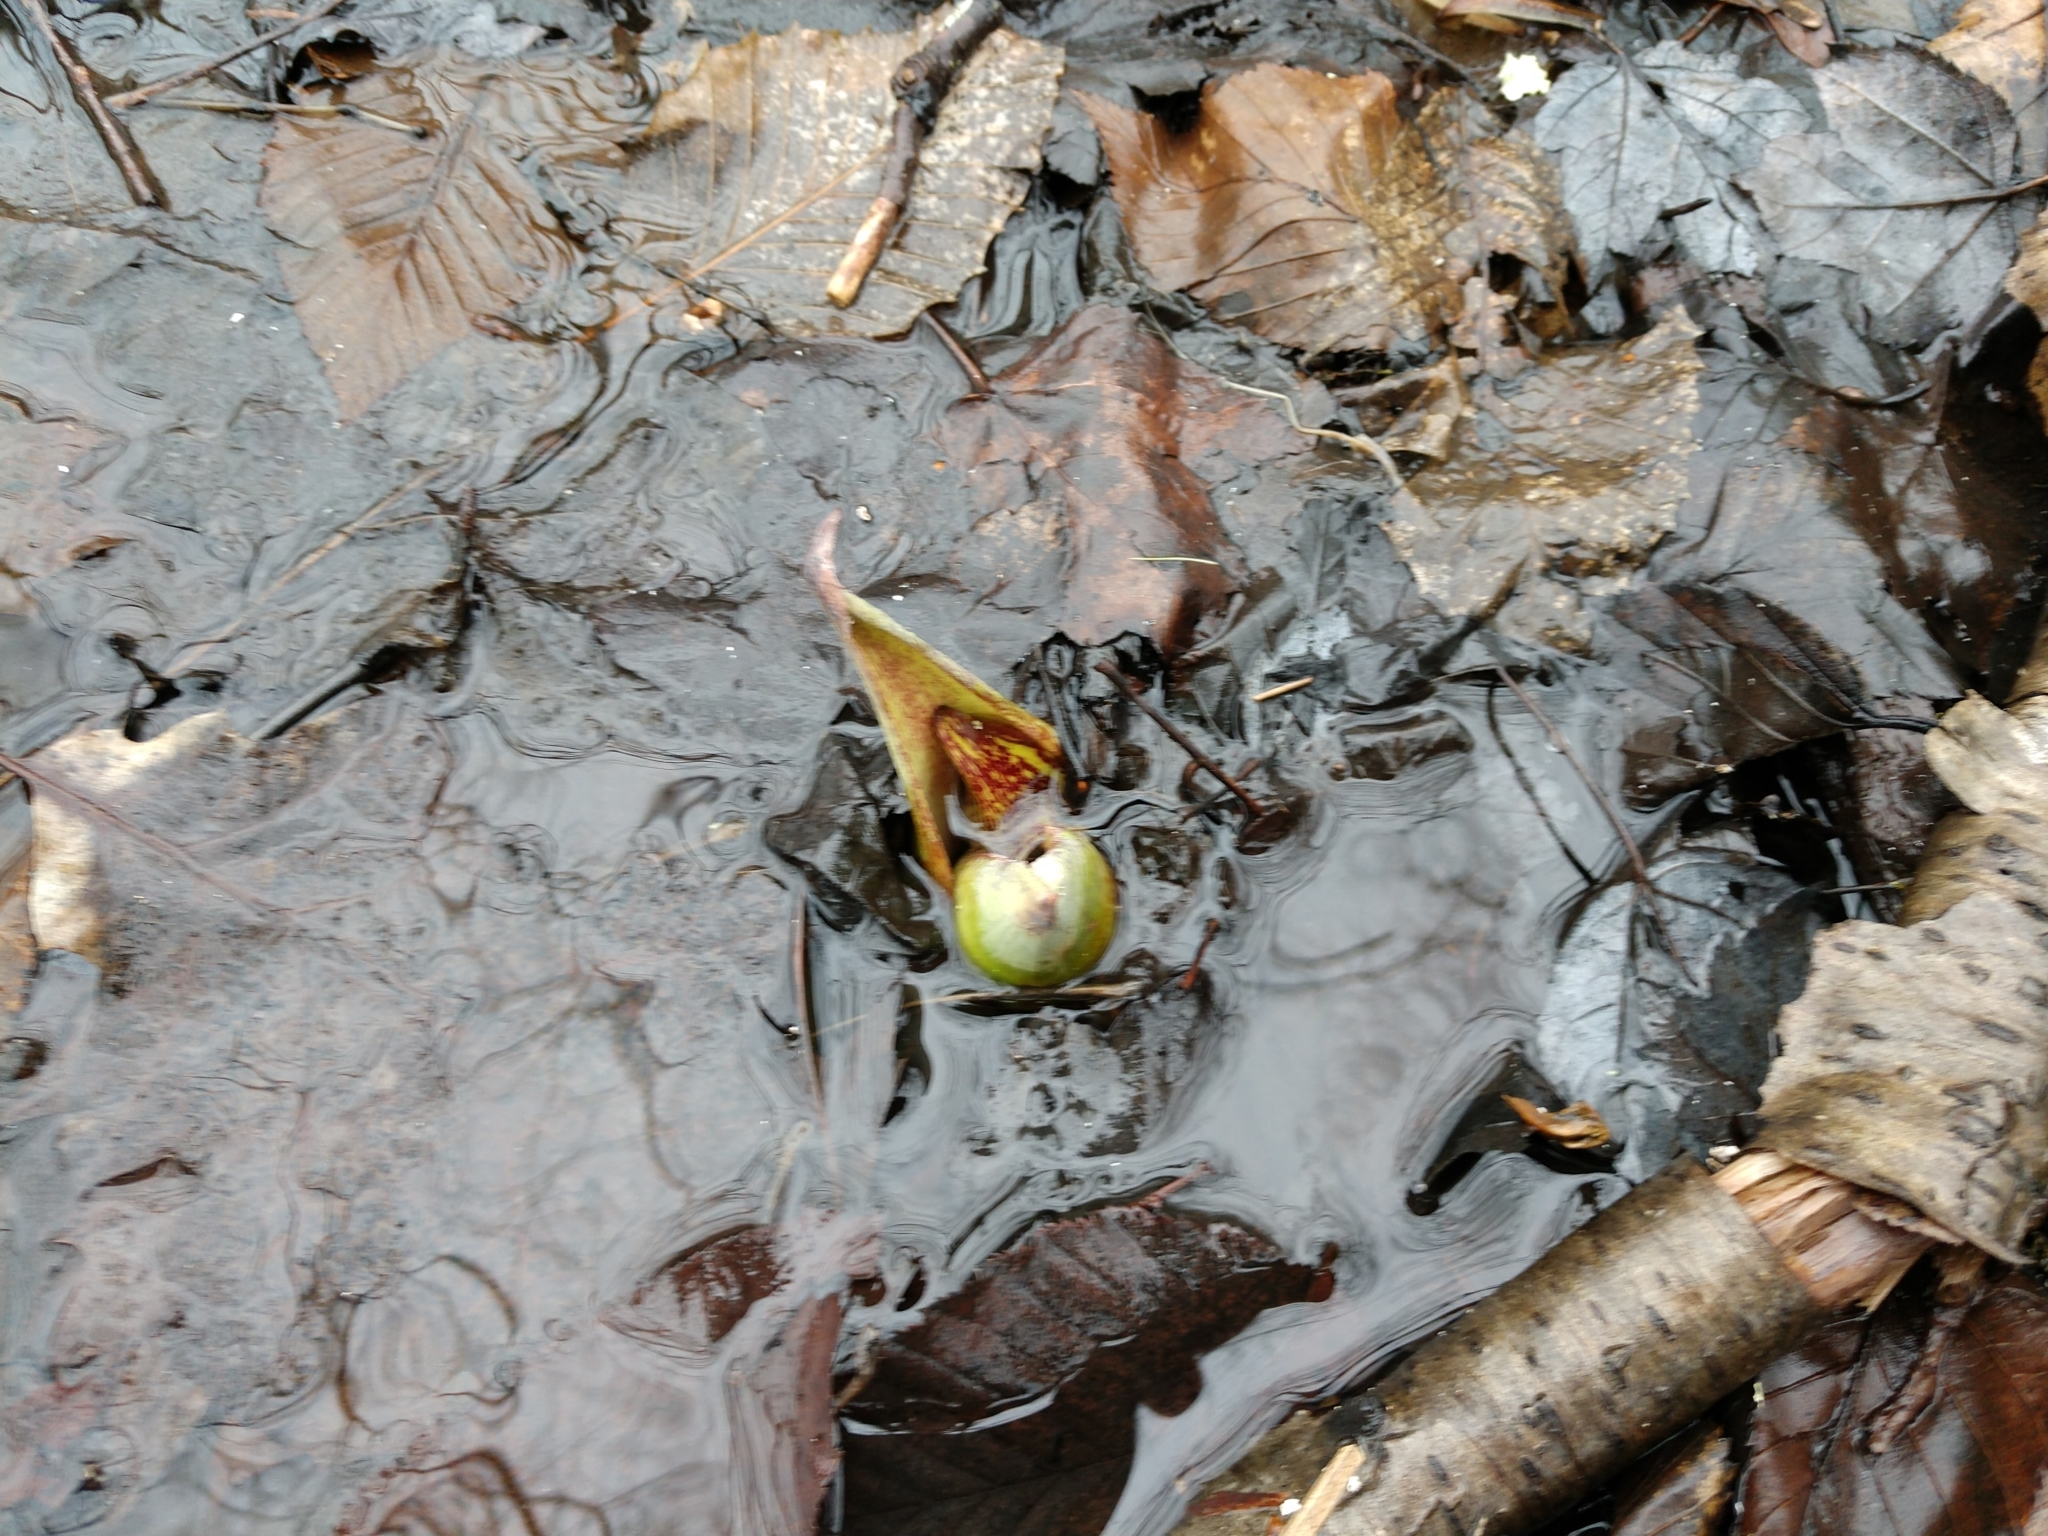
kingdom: Plantae
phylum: Tracheophyta
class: Liliopsida
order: Alismatales
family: Araceae
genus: Symplocarpus
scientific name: Symplocarpus foetidus
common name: Eastern skunk cabbage
